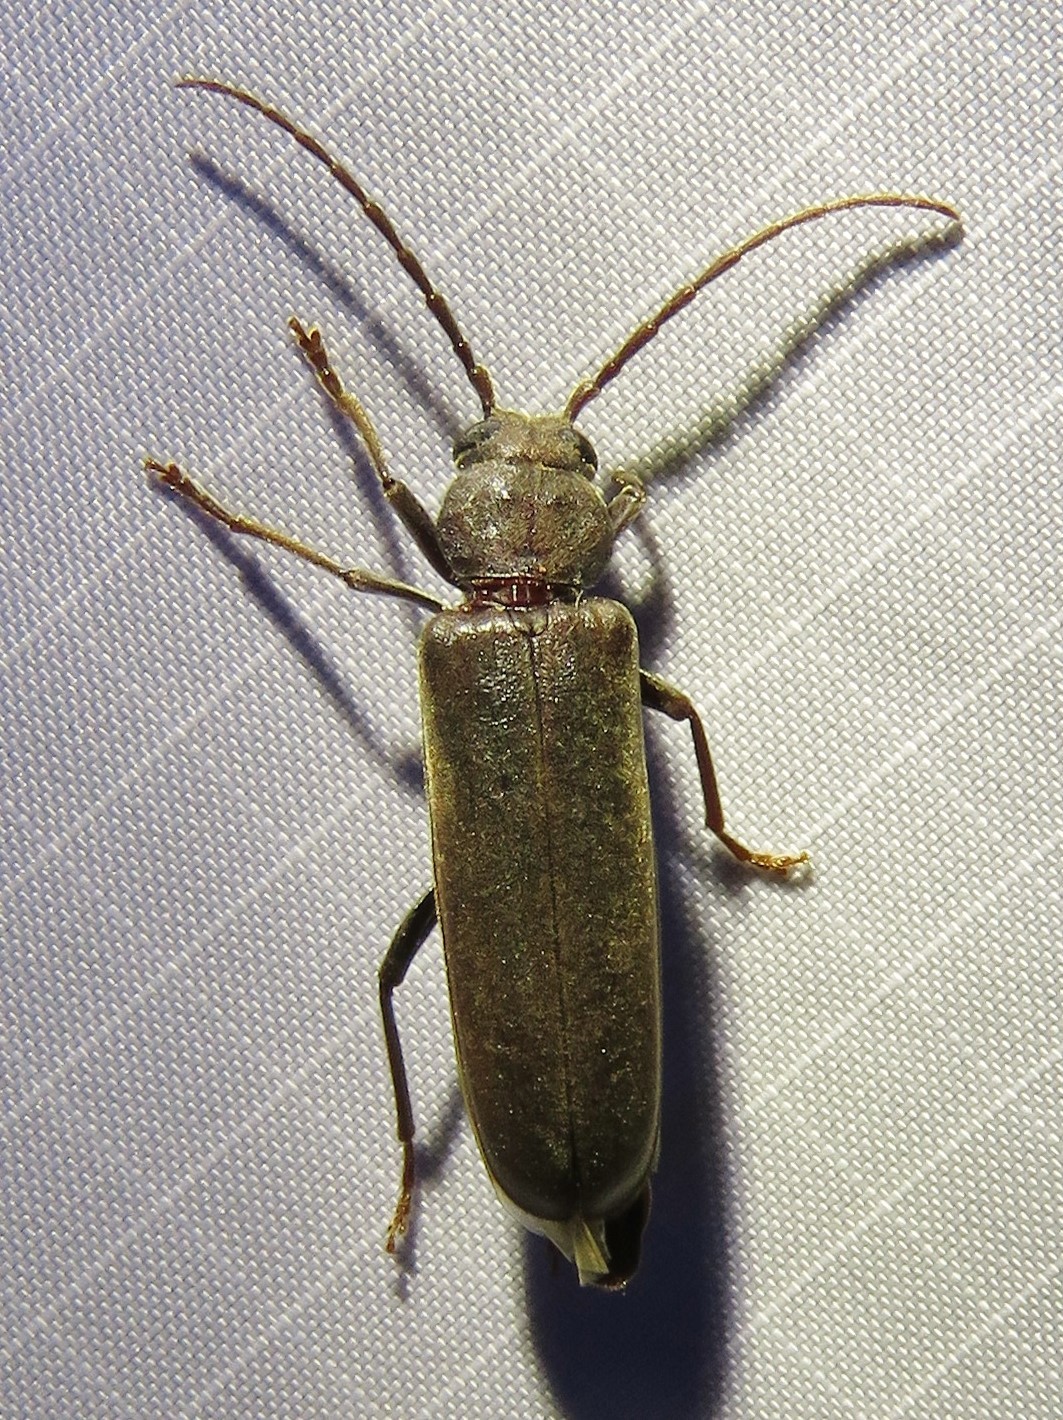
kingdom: Animalia
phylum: Arthropoda
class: Insecta
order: Coleoptera
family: Cerambycidae
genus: Arhopalus
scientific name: Arhopalus rusticus
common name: Rust pine borer
